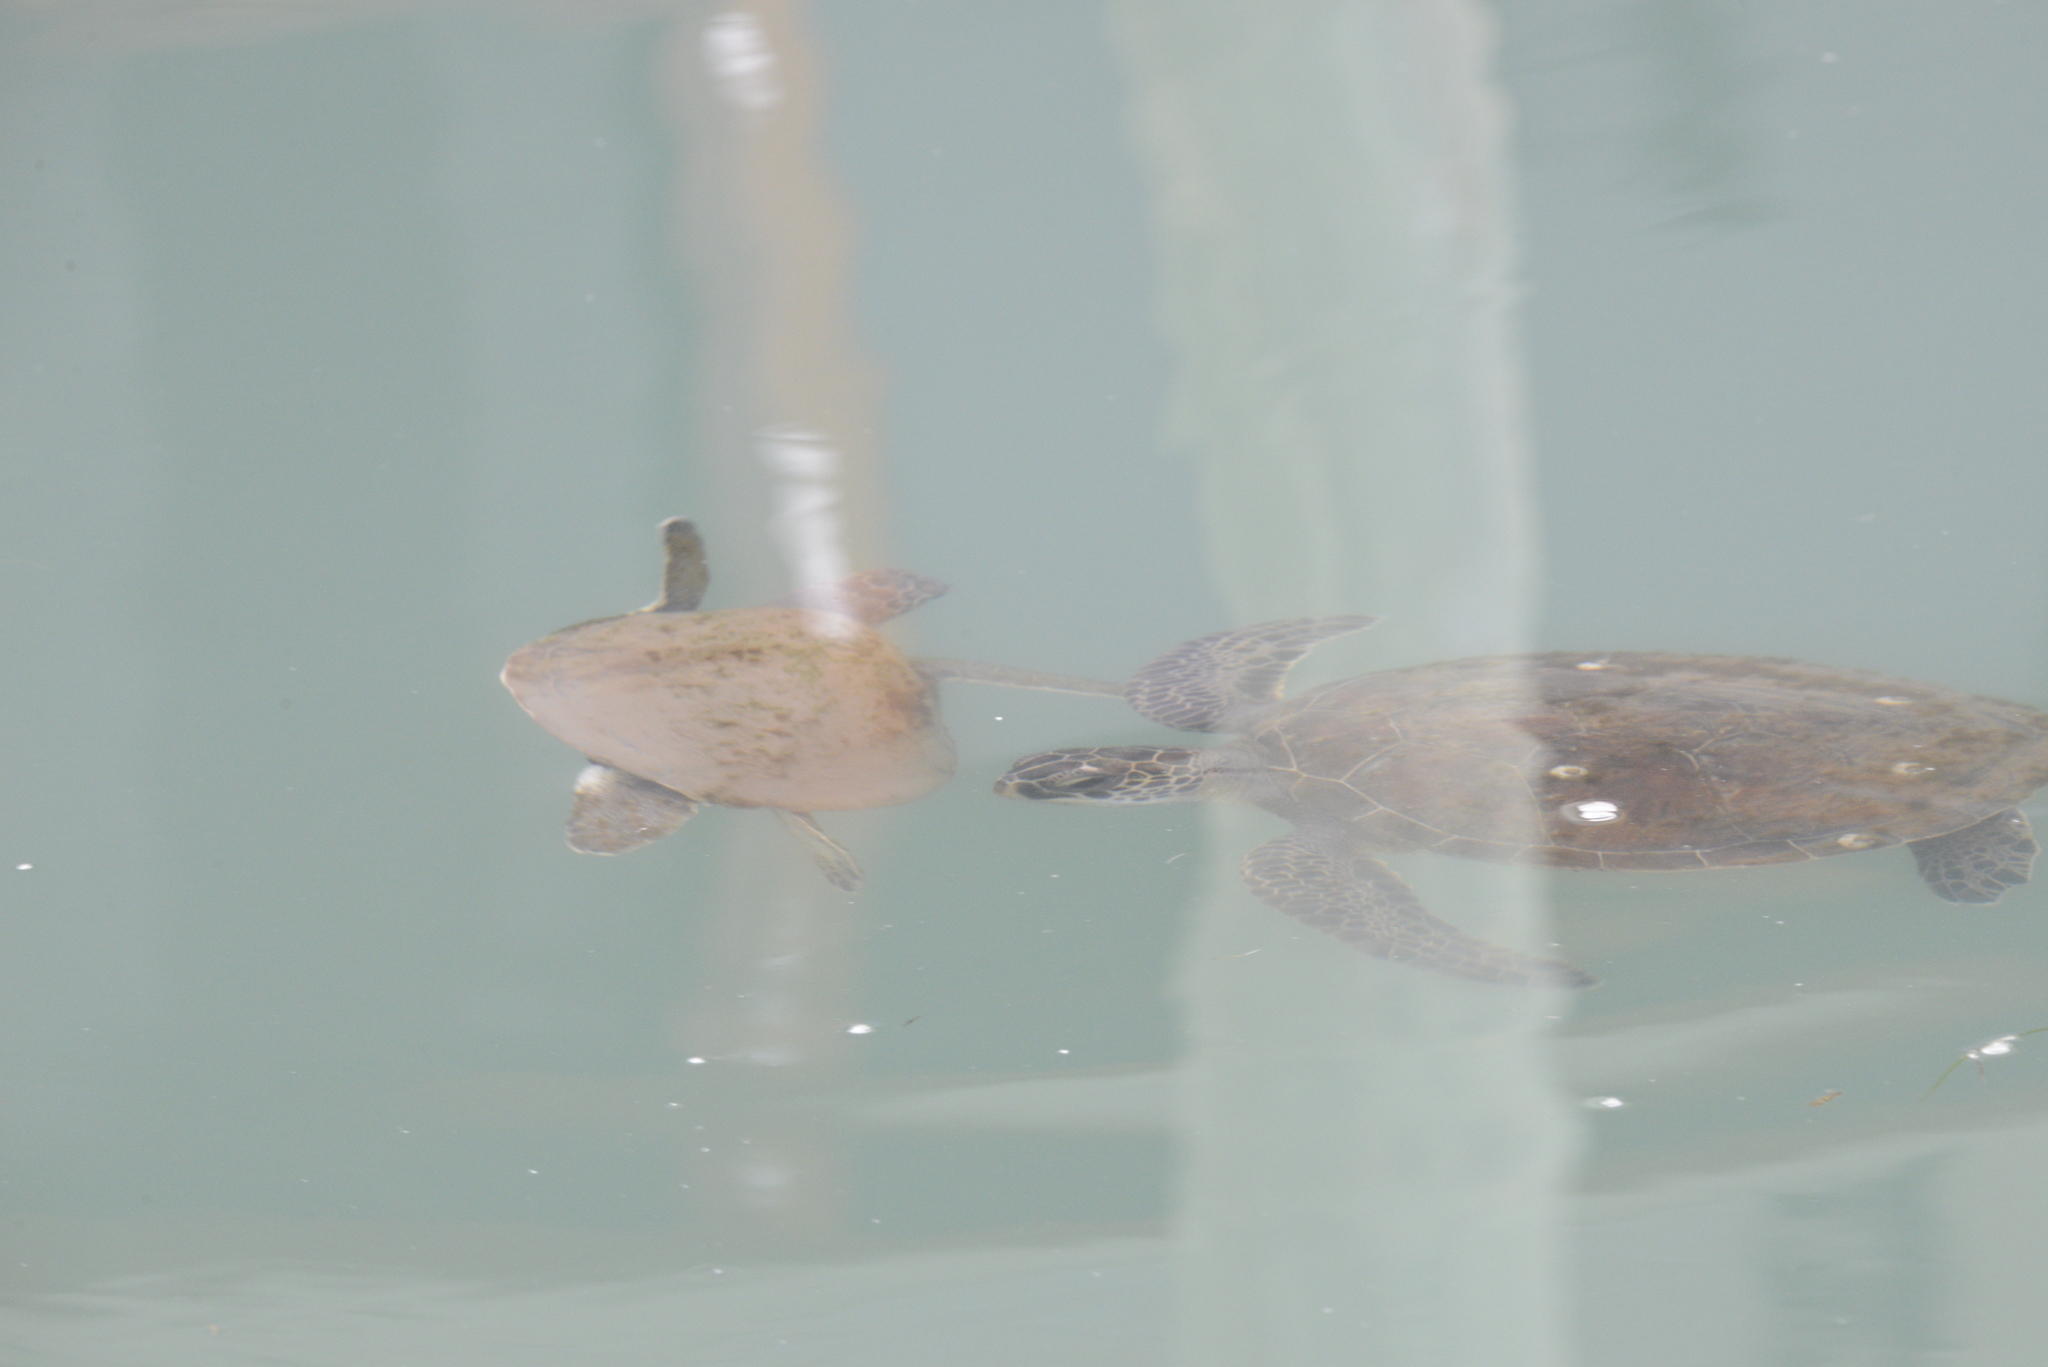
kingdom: Animalia
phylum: Chordata
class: Testudines
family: Cheloniidae
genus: Chelonia
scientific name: Chelonia mydas
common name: Green turtle
